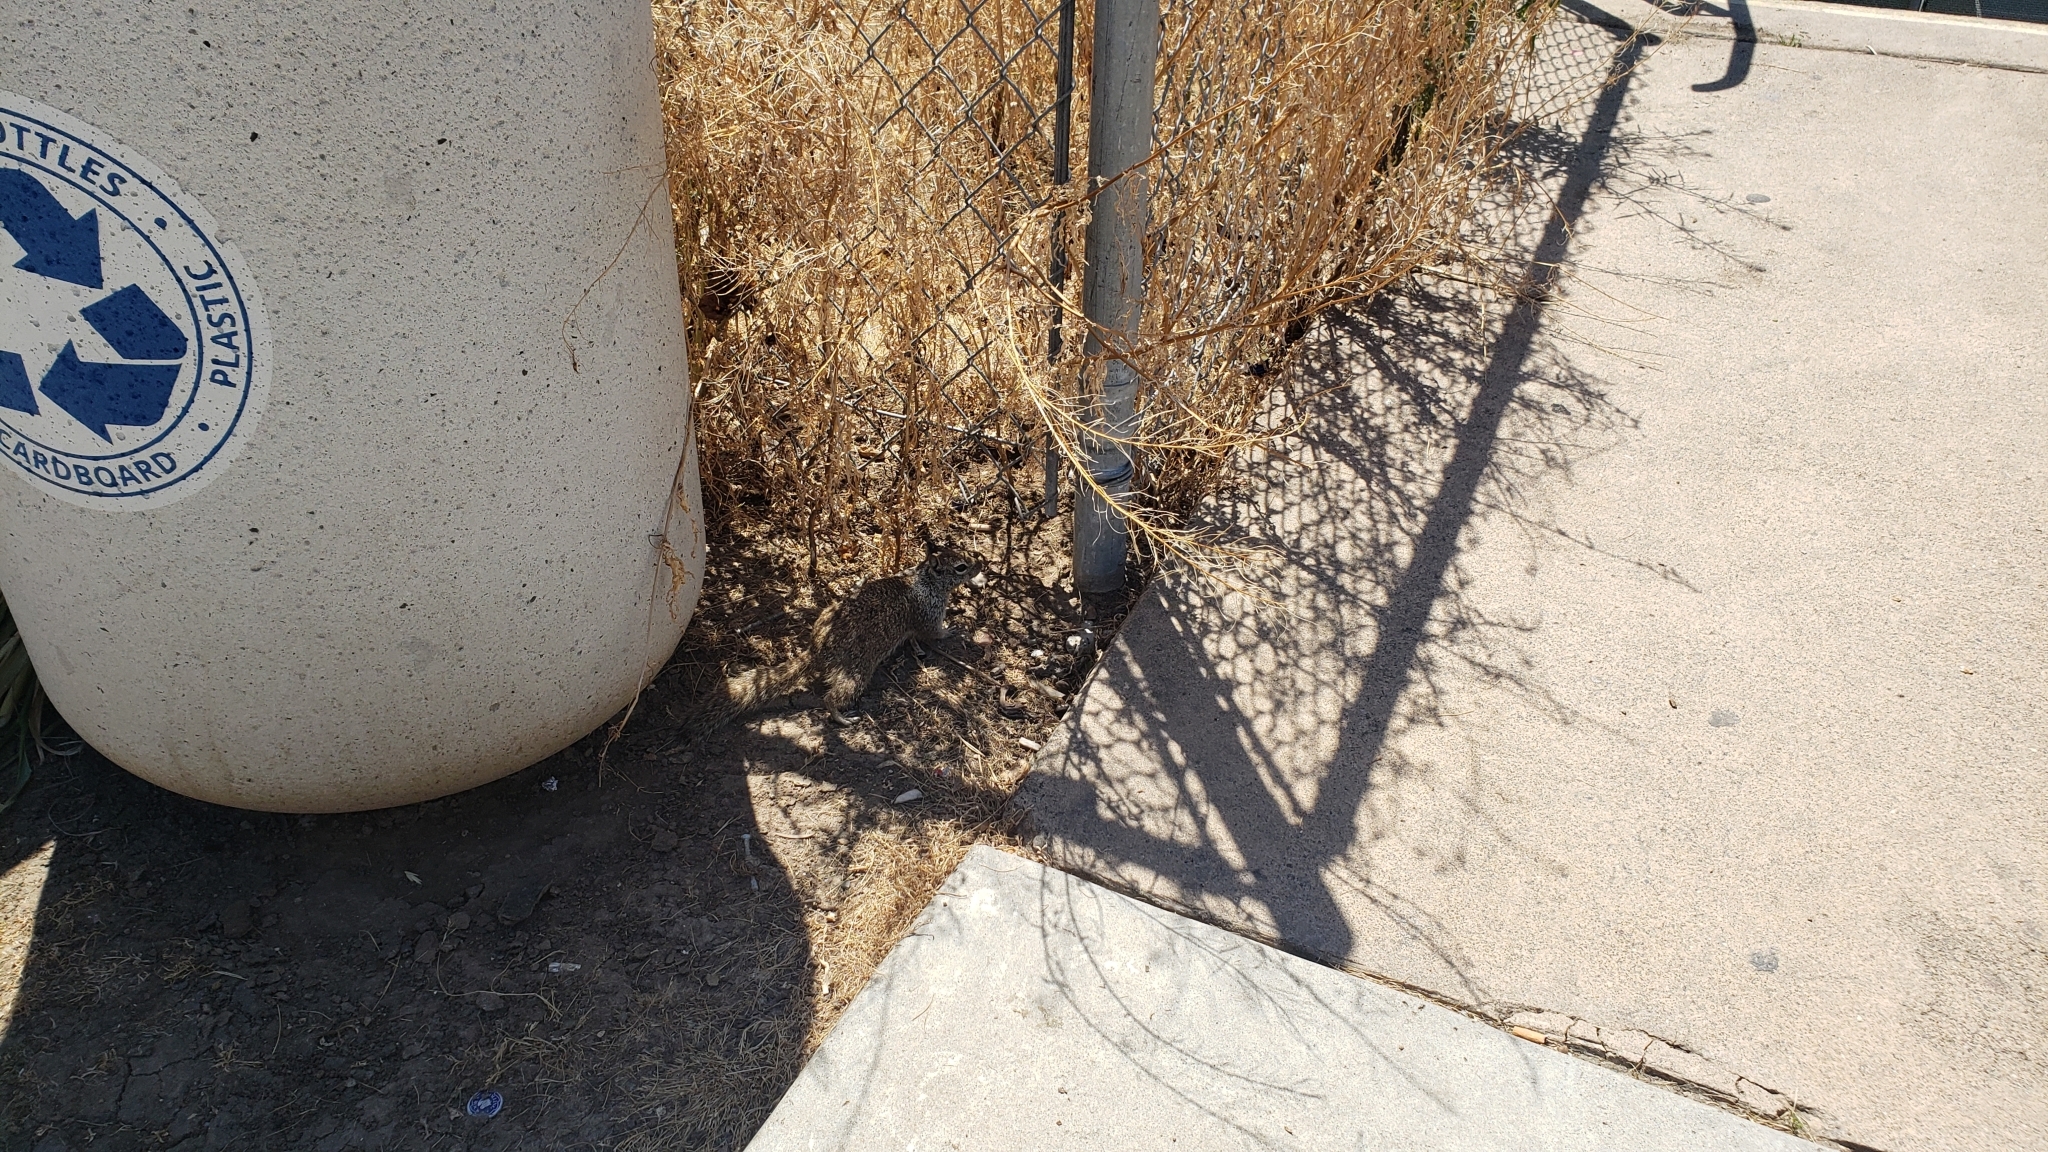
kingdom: Animalia
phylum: Chordata
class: Mammalia
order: Rodentia
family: Sciuridae
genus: Otospermophilus
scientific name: Otospermophilus beecheyi
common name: California ground squirrel
